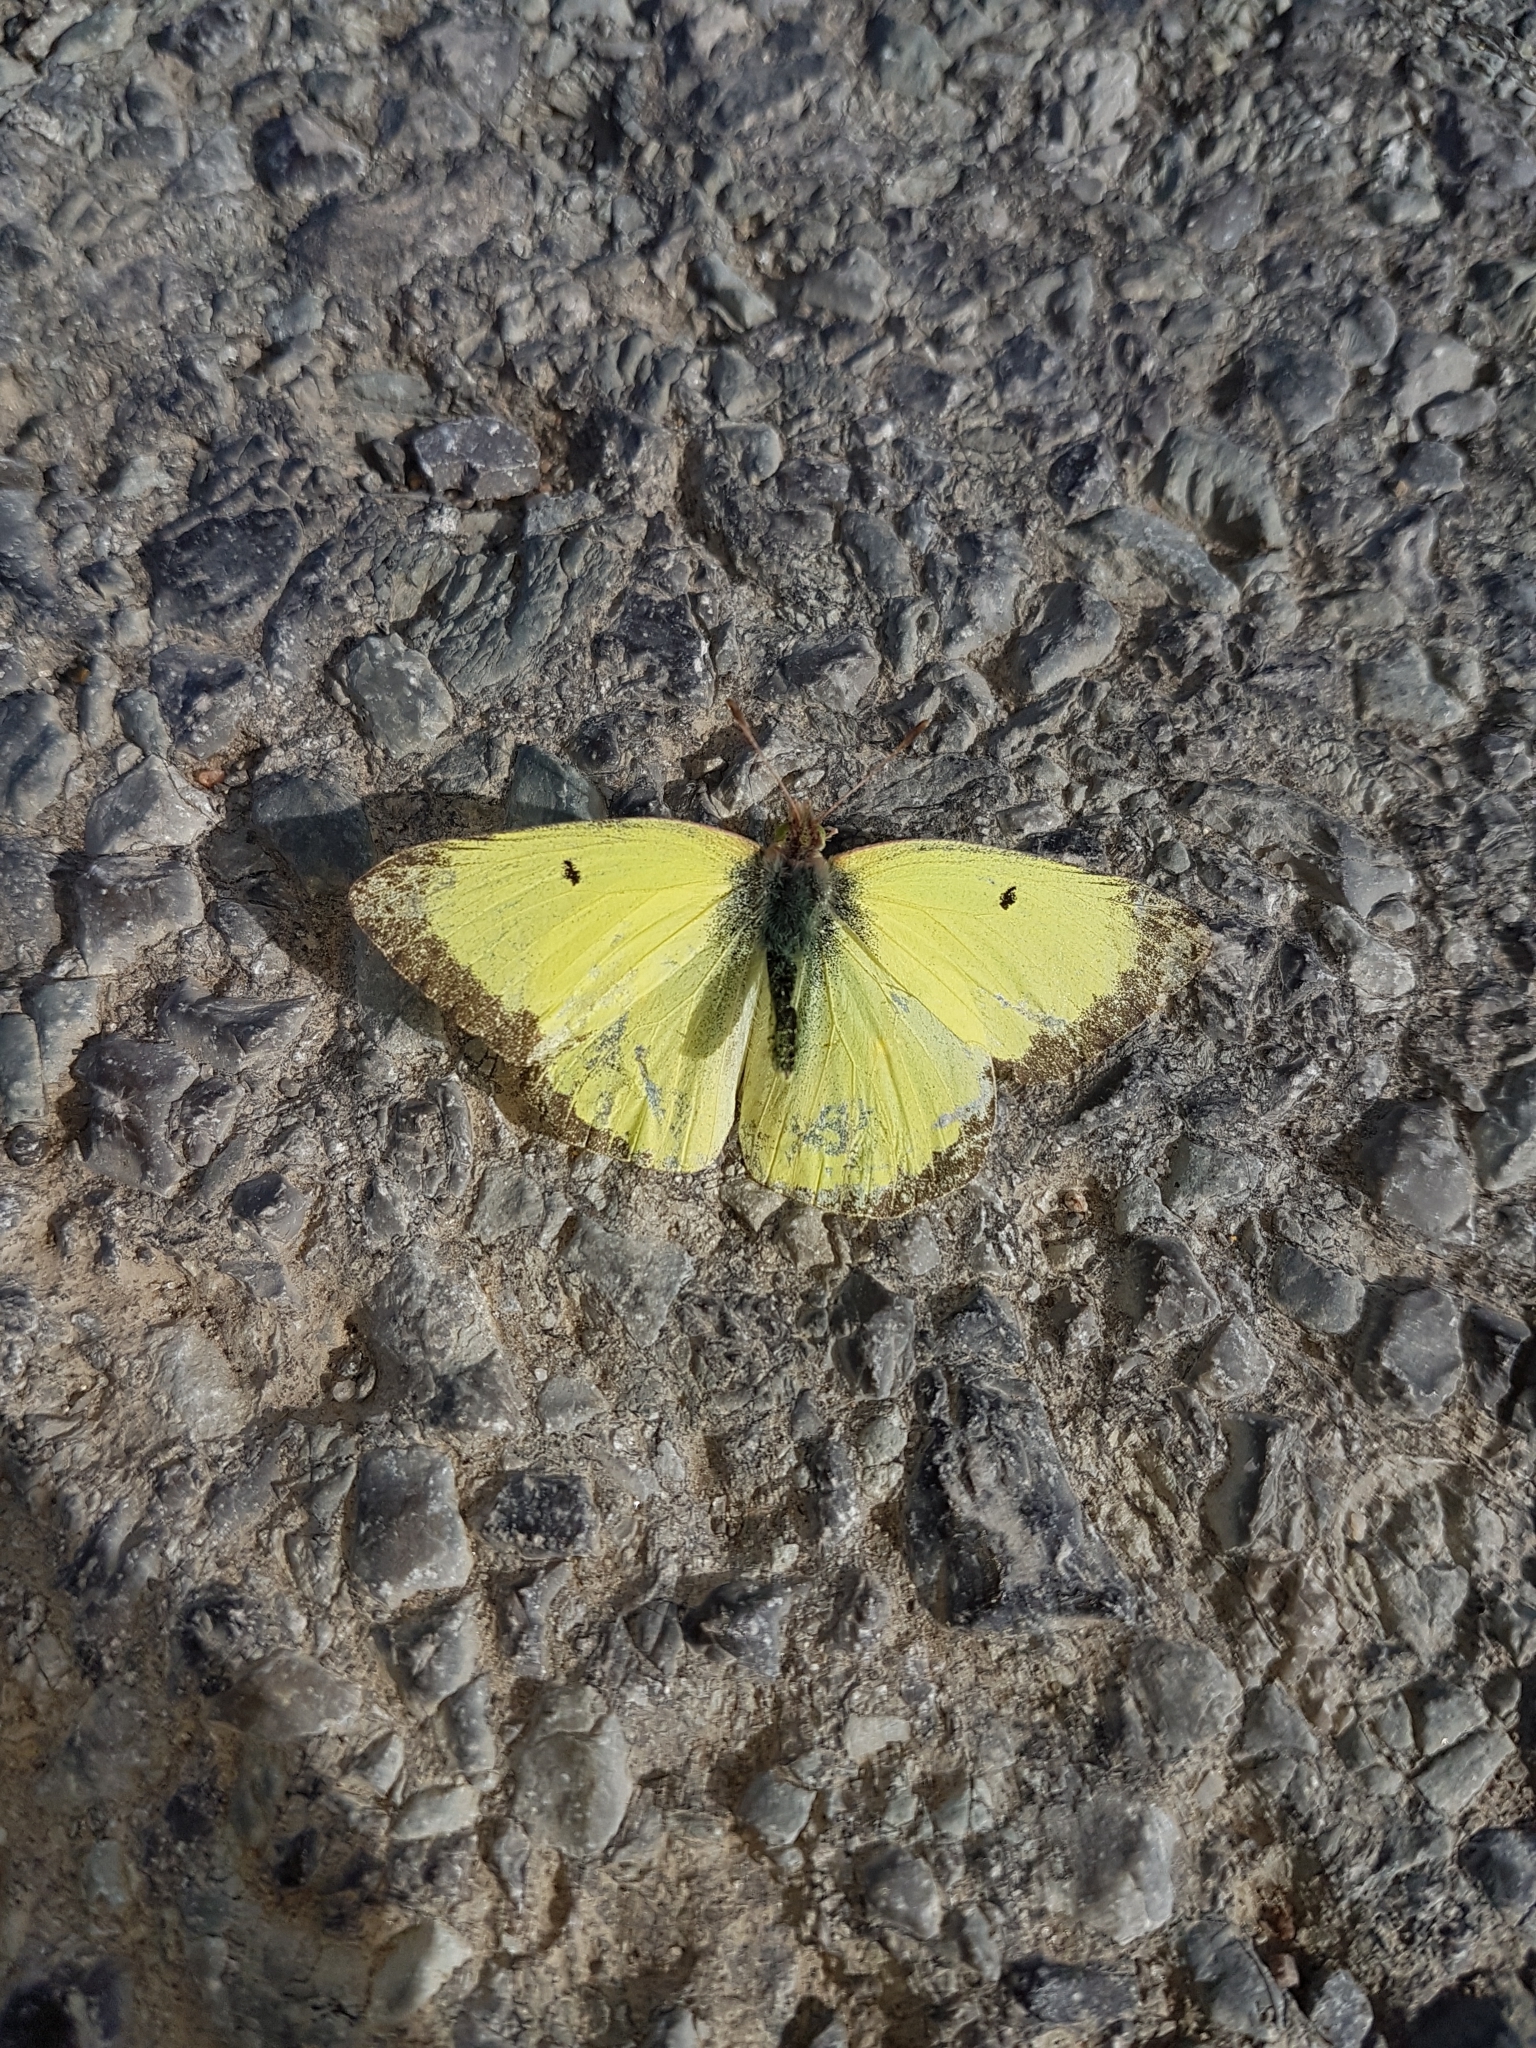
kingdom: Animalia
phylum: Arthropoda
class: Insecta
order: Lepidoptera
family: Pieridae
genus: Colias
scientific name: Colias philodice
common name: Clouded sulphur
